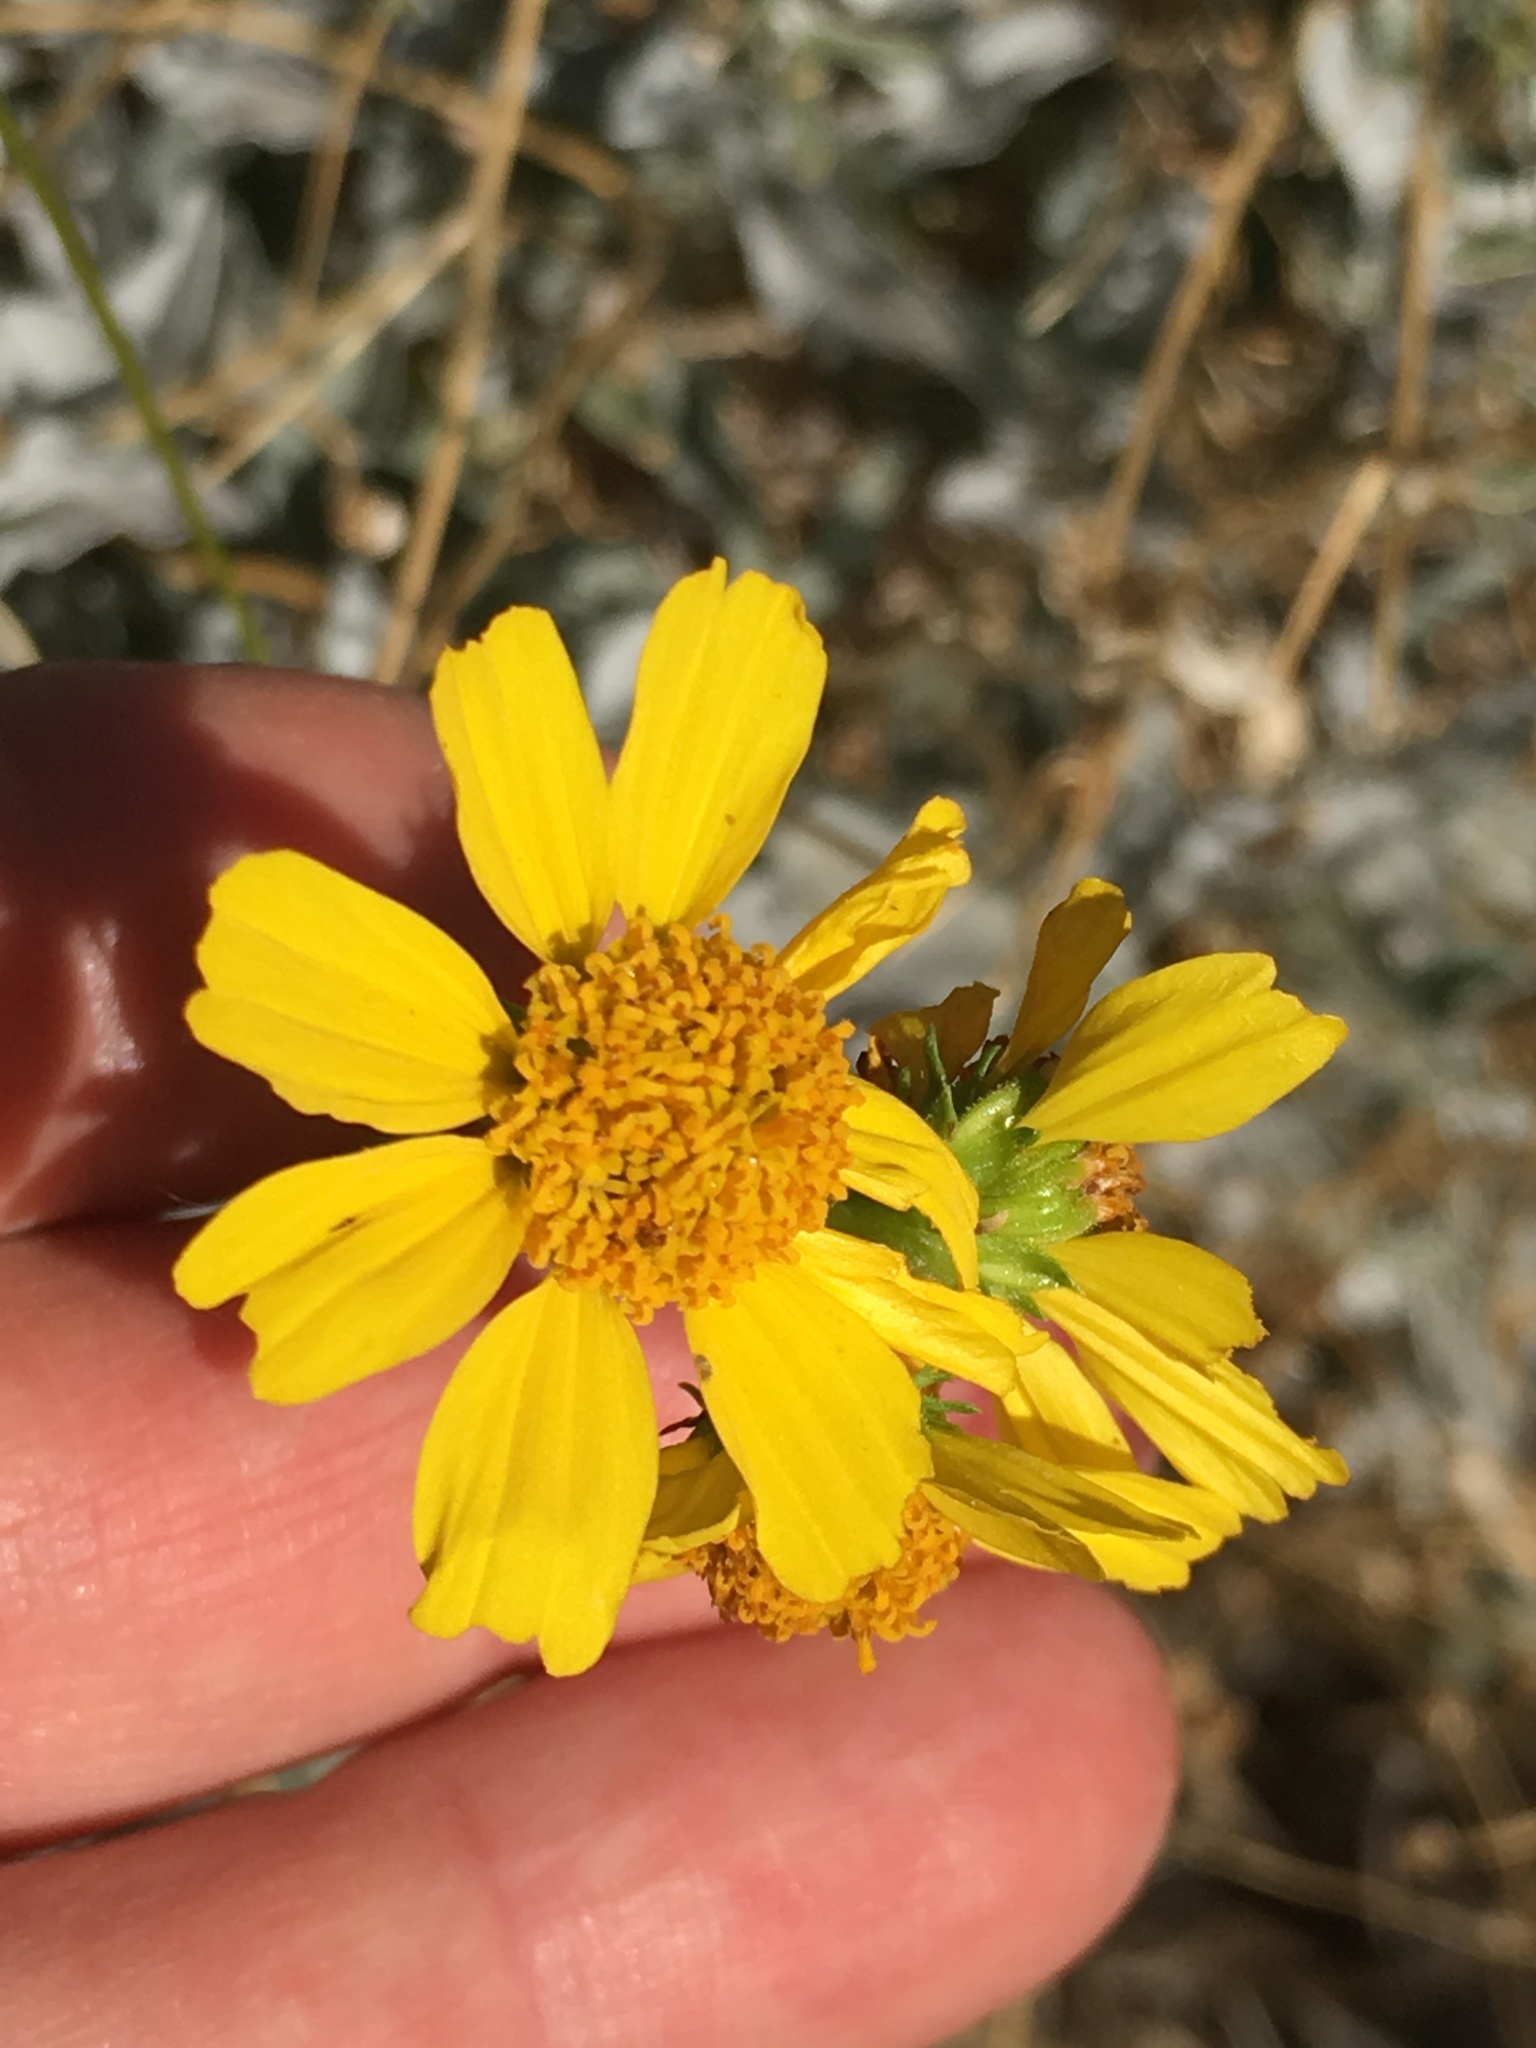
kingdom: Plantae
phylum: Tracheophyta
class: Magnoliopsida
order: Asterales
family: Asteraceae
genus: Encelia
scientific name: Encelia farinosa
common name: Brittlebush
